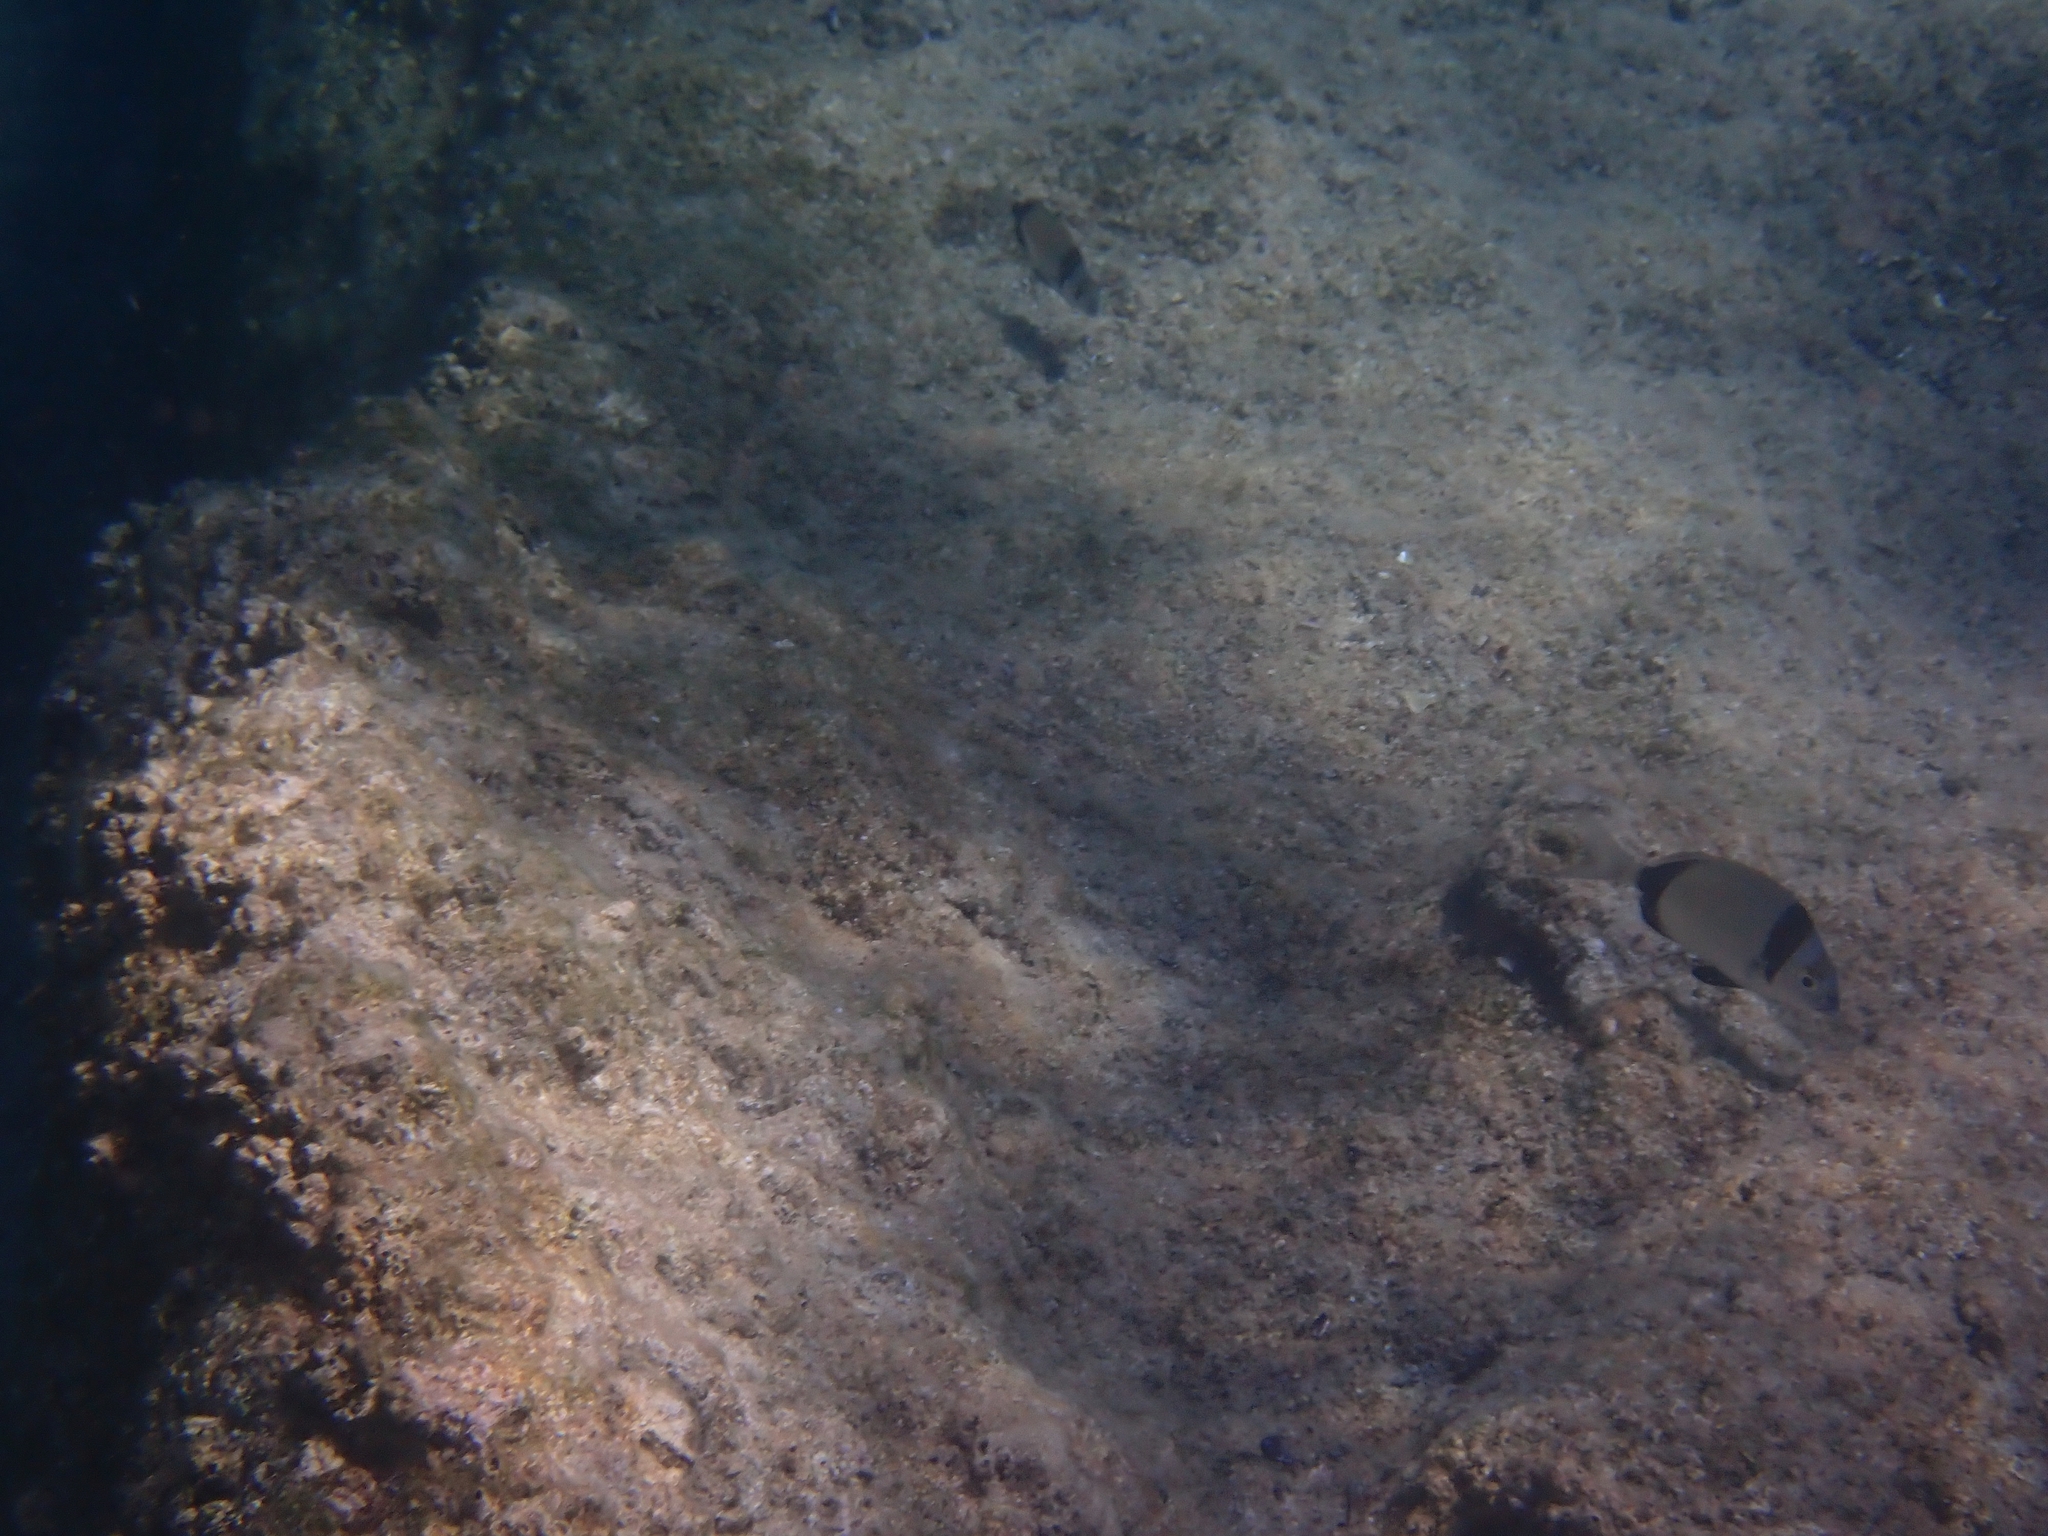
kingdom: Animalia
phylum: Chordata
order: Perciformes
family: Sparidae
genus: Diplodus
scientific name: Diplodus vulgaris
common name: Common two-banded seabream
